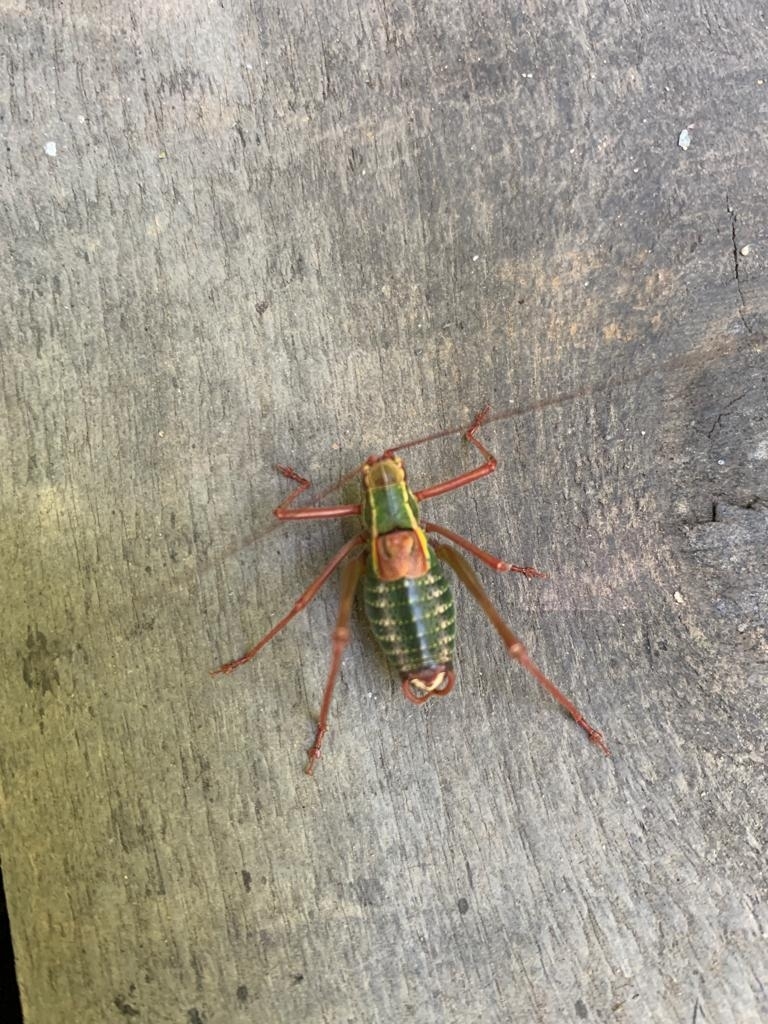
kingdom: Animalia
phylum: Arthropoda
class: Insecta
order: Orthoptera
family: Tettigoniidae
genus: Barbitistes
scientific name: Barbitistes serricauda
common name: Saw-tailed bush-cricket
